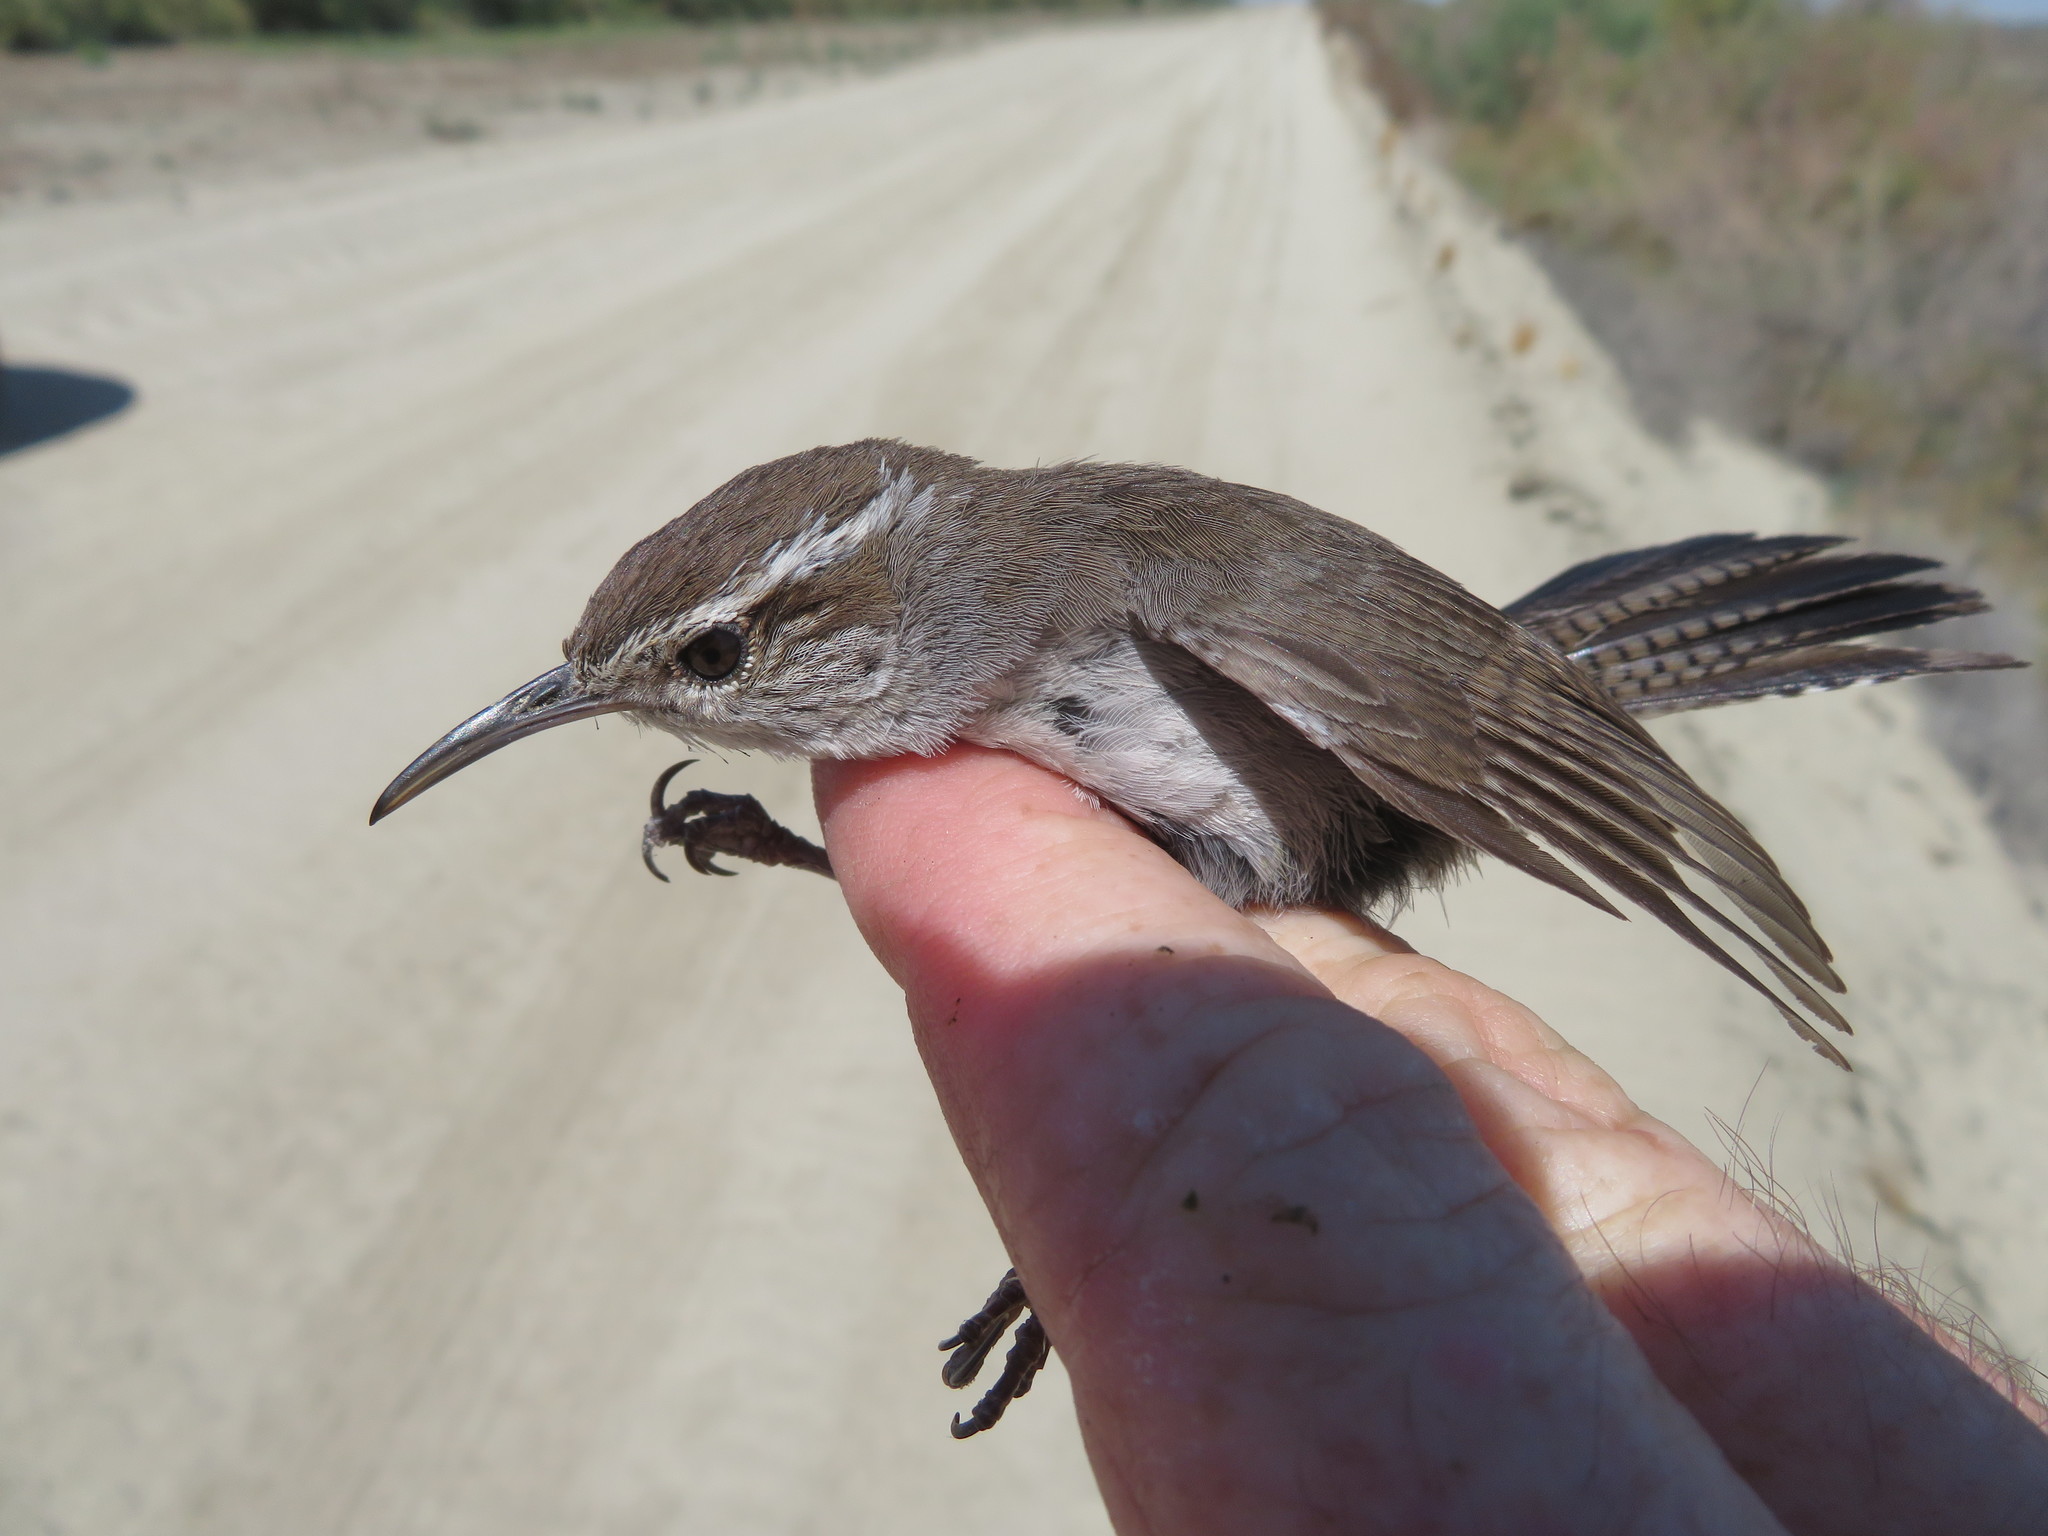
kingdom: Animalia
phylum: Chordata
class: Aves
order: Passeriformes
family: Troglodytidae
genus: Thryomanes
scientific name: Thryomanes bewickii
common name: Bewick's wren
